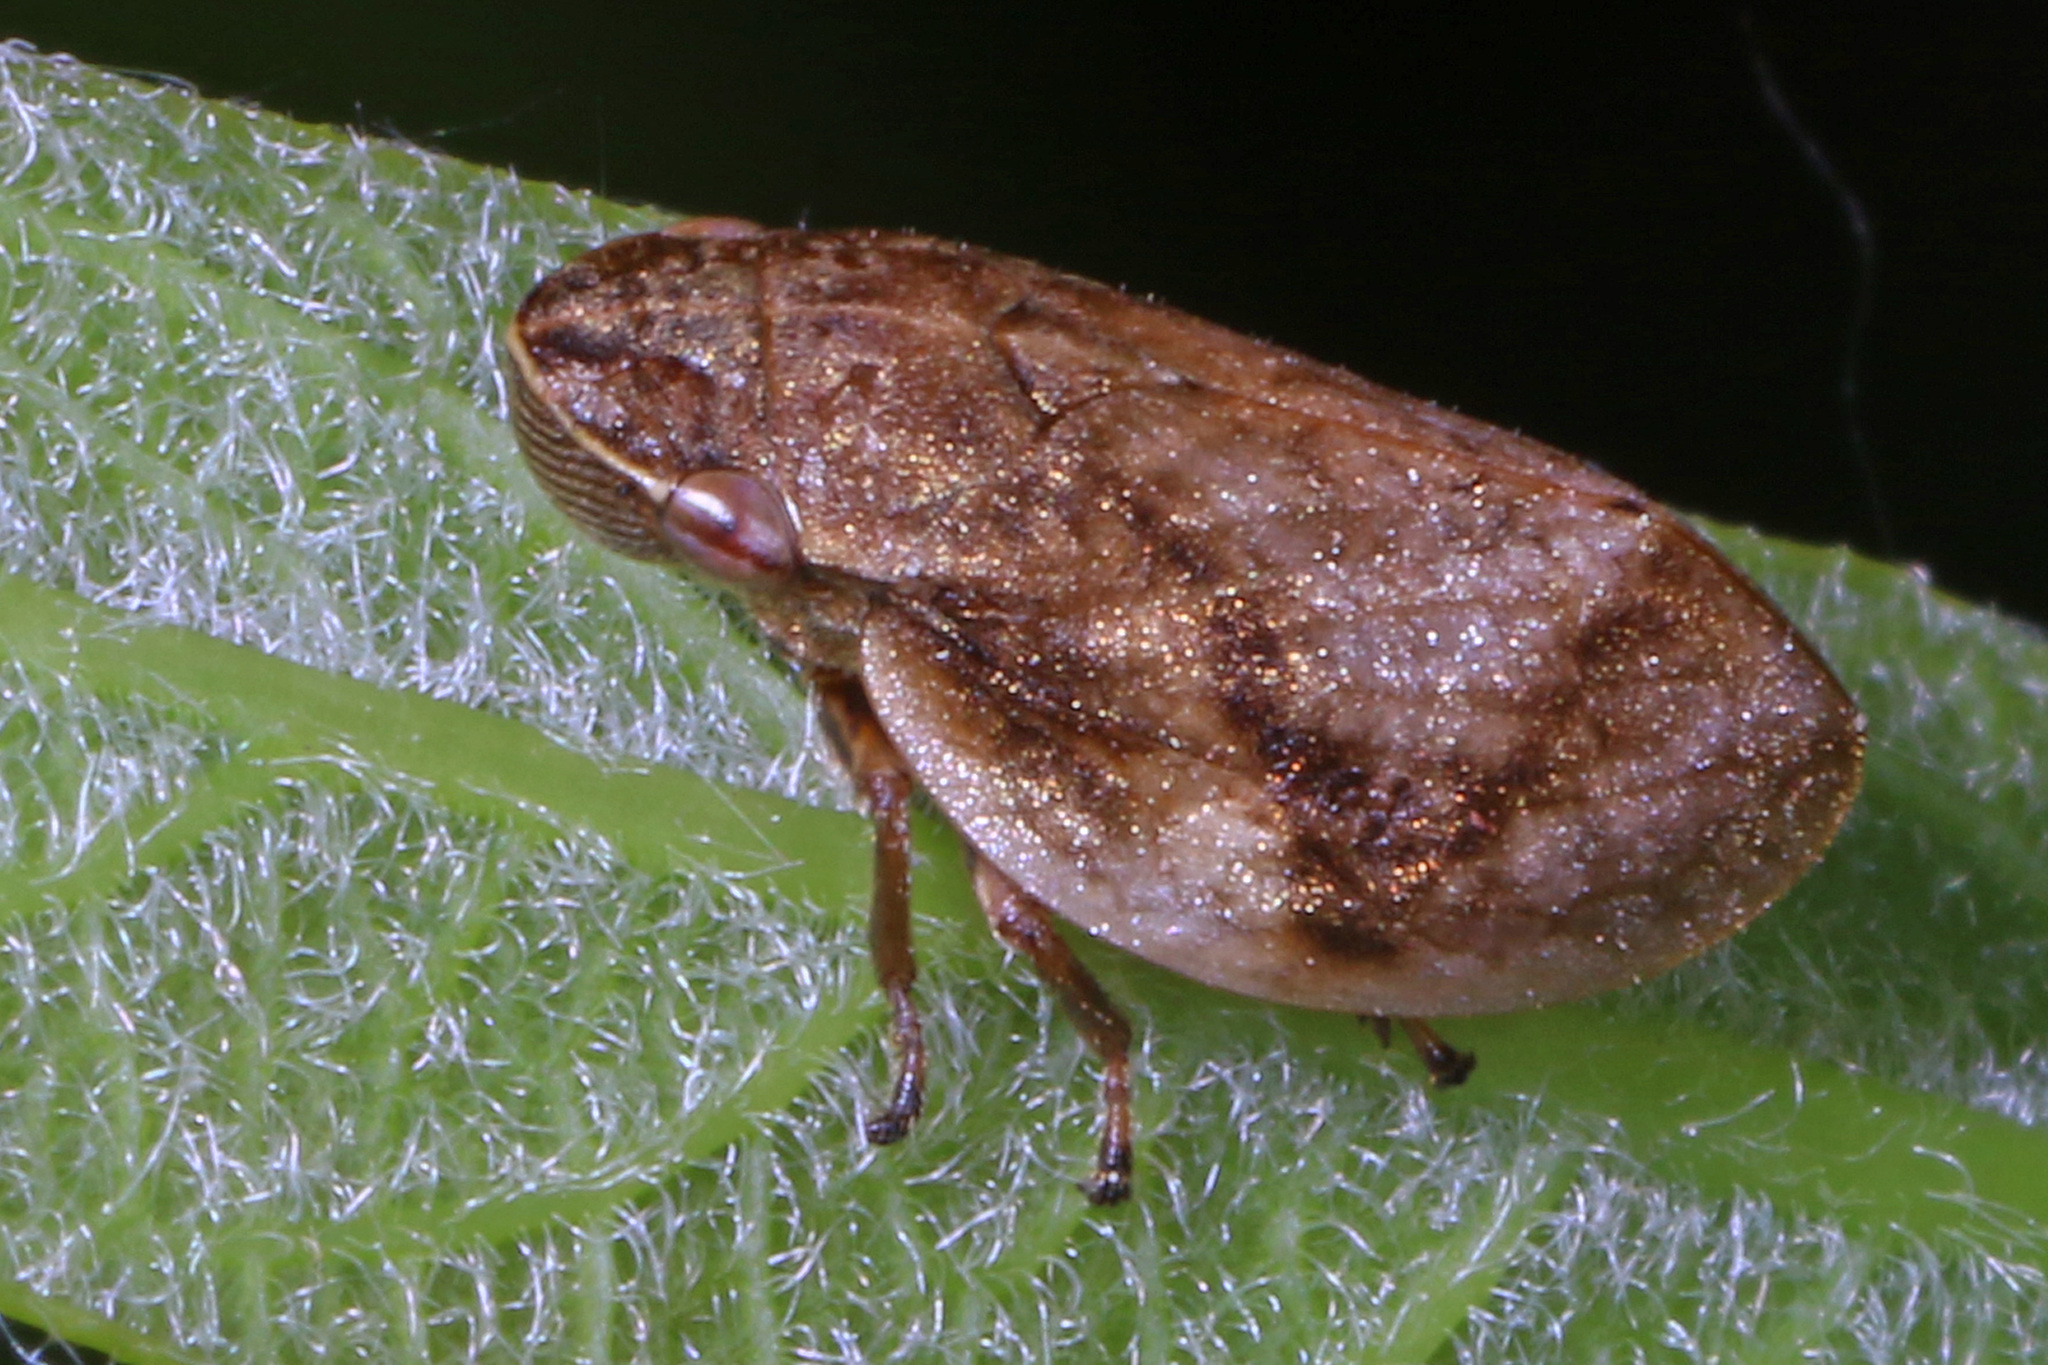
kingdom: Animalia
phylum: Arthropoda
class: Insecta
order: Hemiptera
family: Aphrophoridae
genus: Lepyronia
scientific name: Lepyronia coleoptrata
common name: Leafhopper
